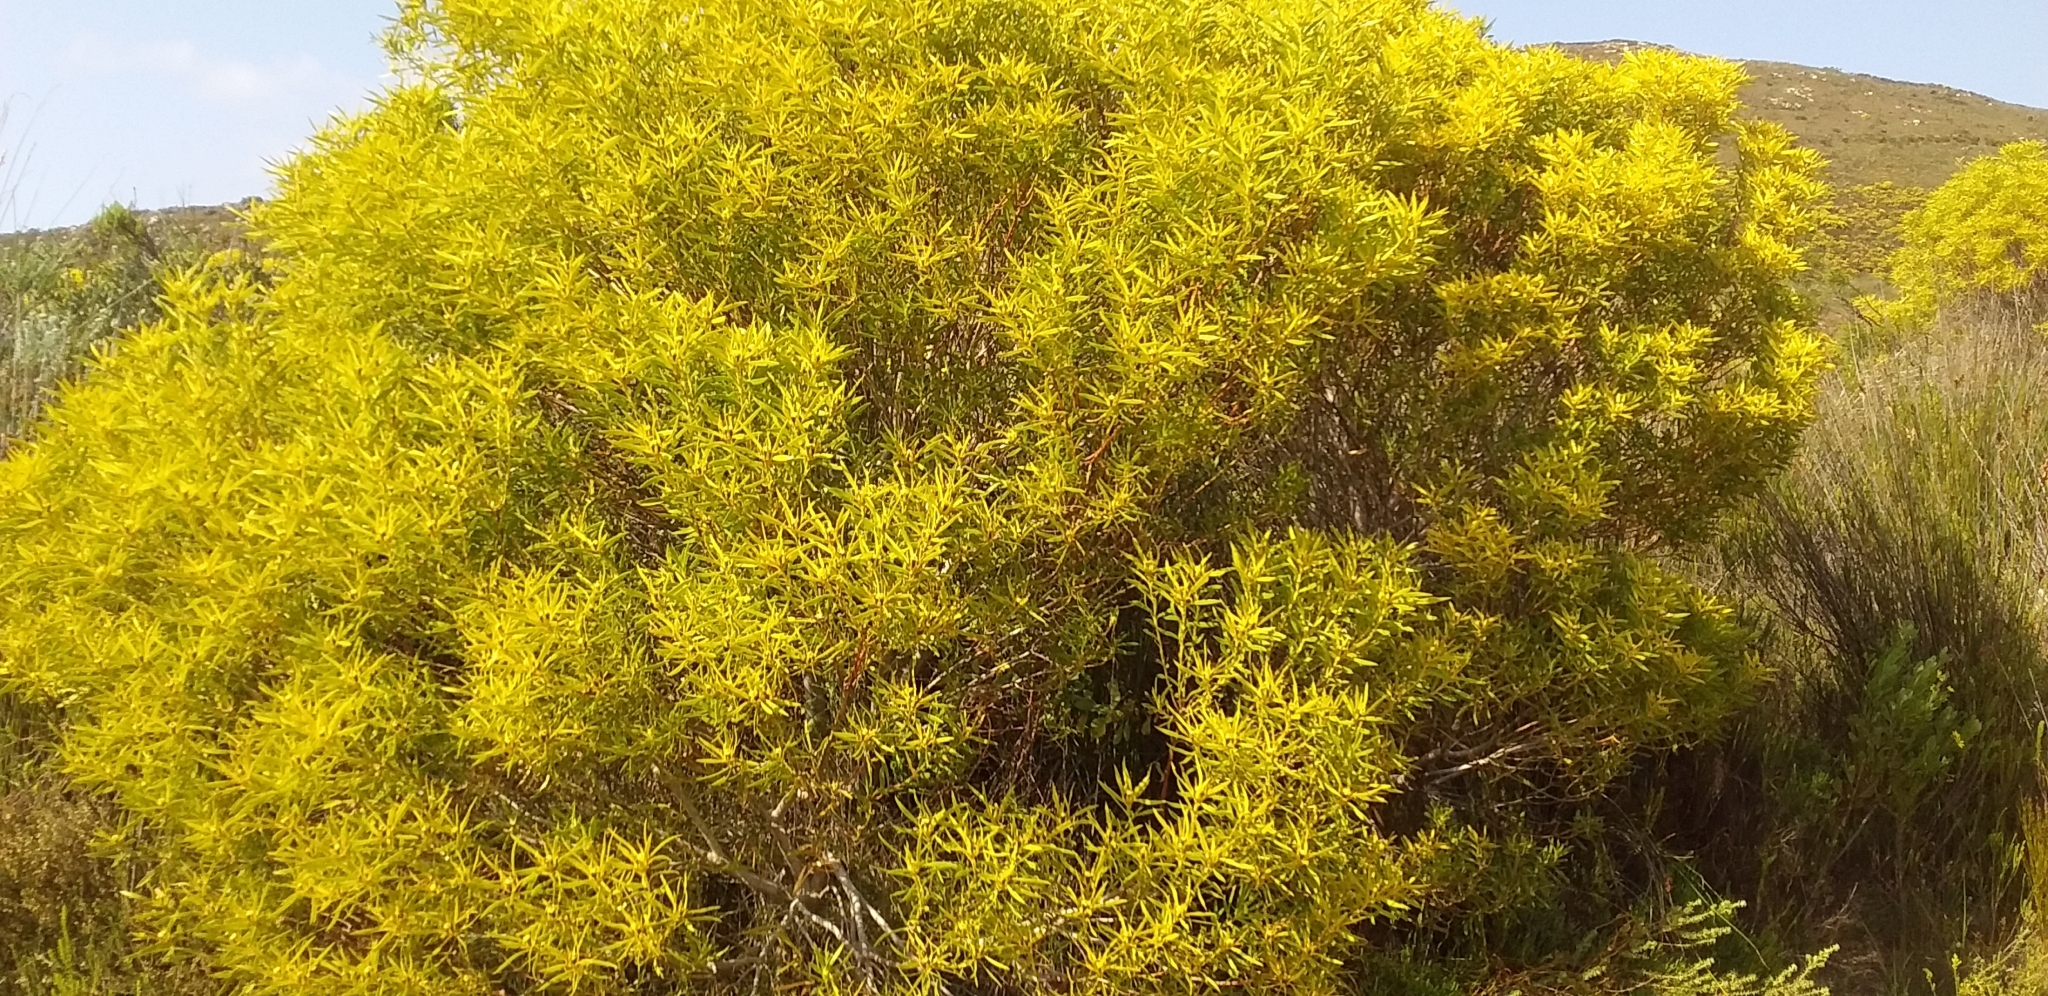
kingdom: Plantae
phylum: Tracheophyta
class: Magnoliopsida
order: Proteales
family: Proteaceae
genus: Leucadendron
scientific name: Leucadendron coniferum
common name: Dune conebush
